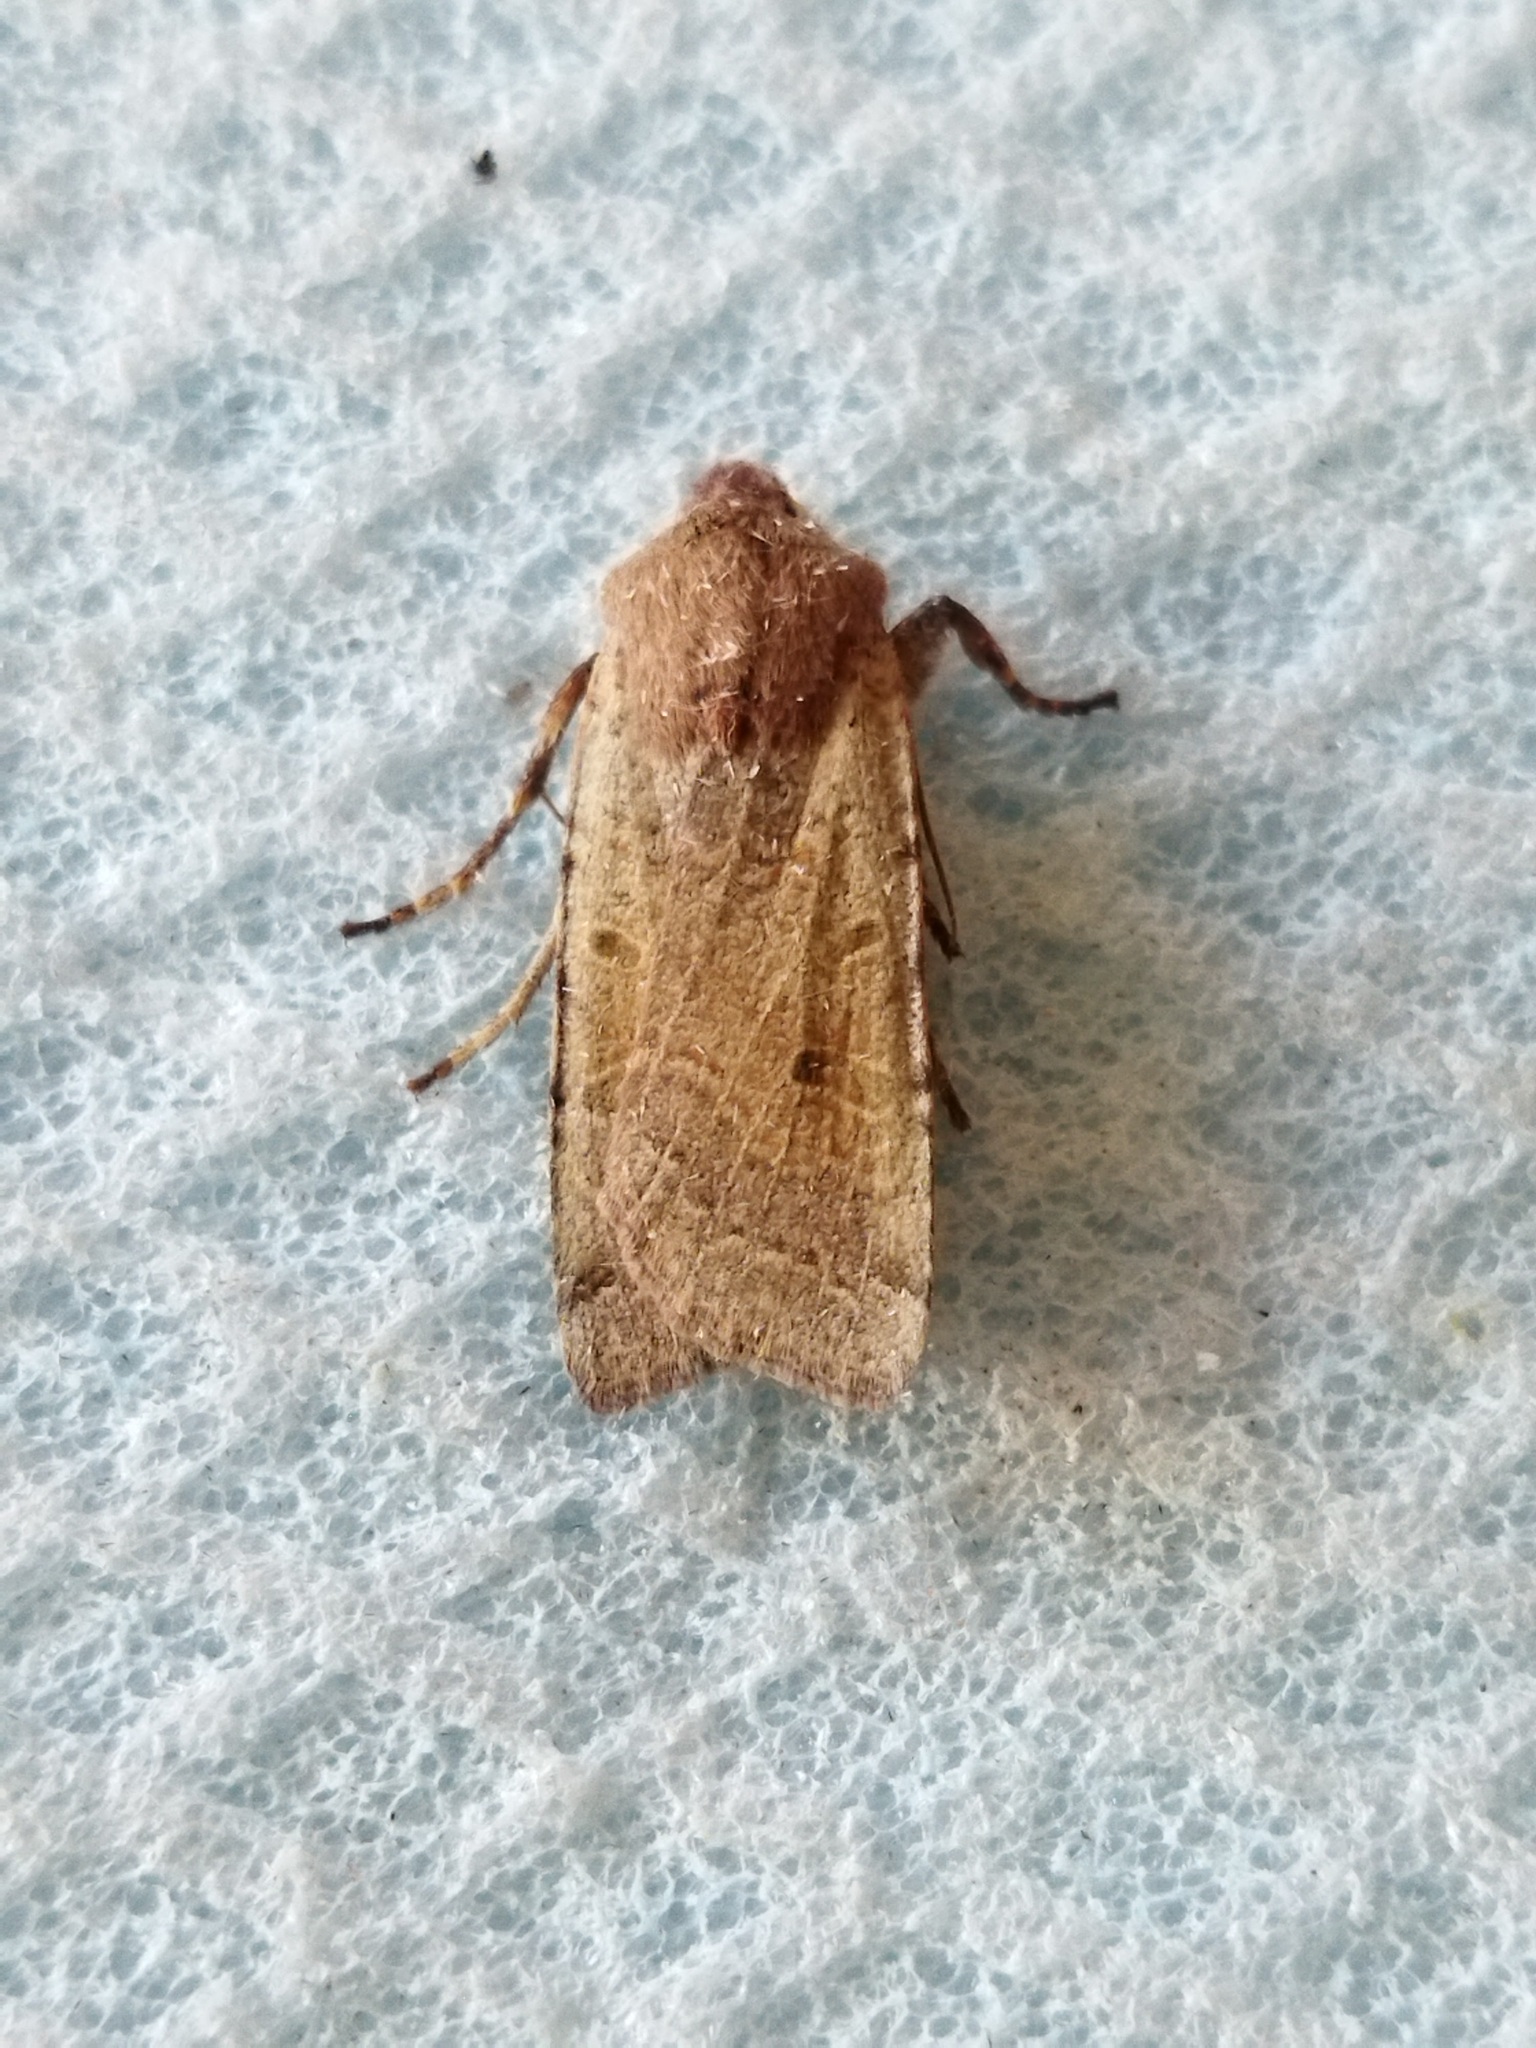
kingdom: Animalia
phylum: Arthropoda
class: Insecta
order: Lepidoptera
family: Noctuidae
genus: Agrochola
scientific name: Agrochola lychnidis
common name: Beaded chestnut
